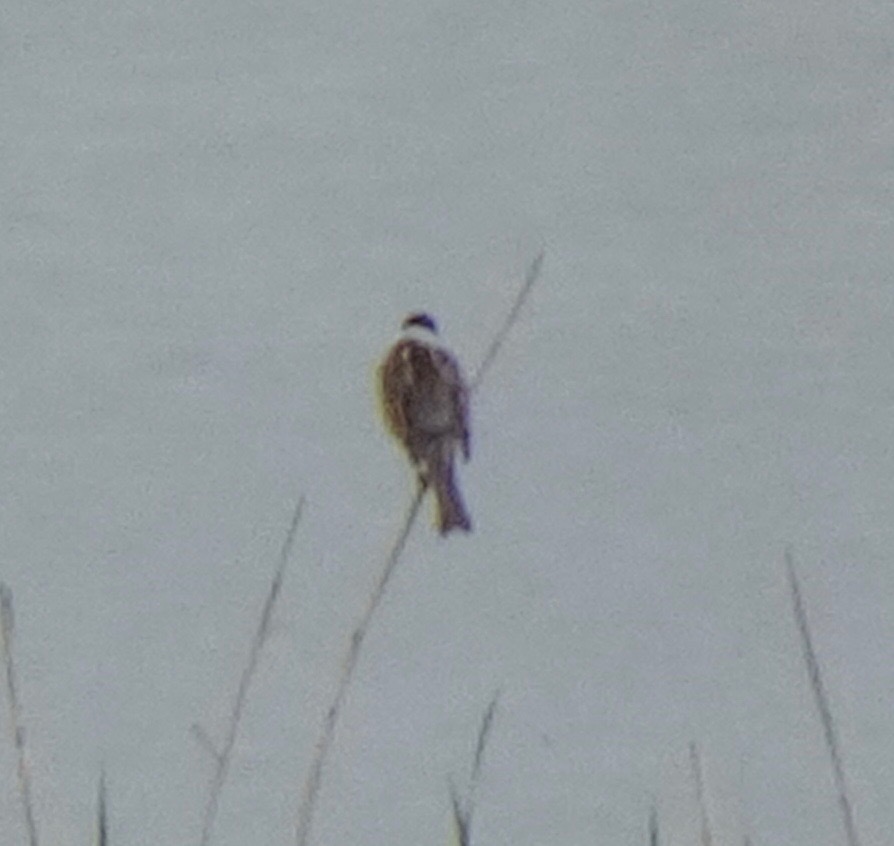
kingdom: Animalia
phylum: Chordata
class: Aves
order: Passeriformes
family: Emberizidae
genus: Emberiza
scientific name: Emberiza schoeniclus
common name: Reed bunting
